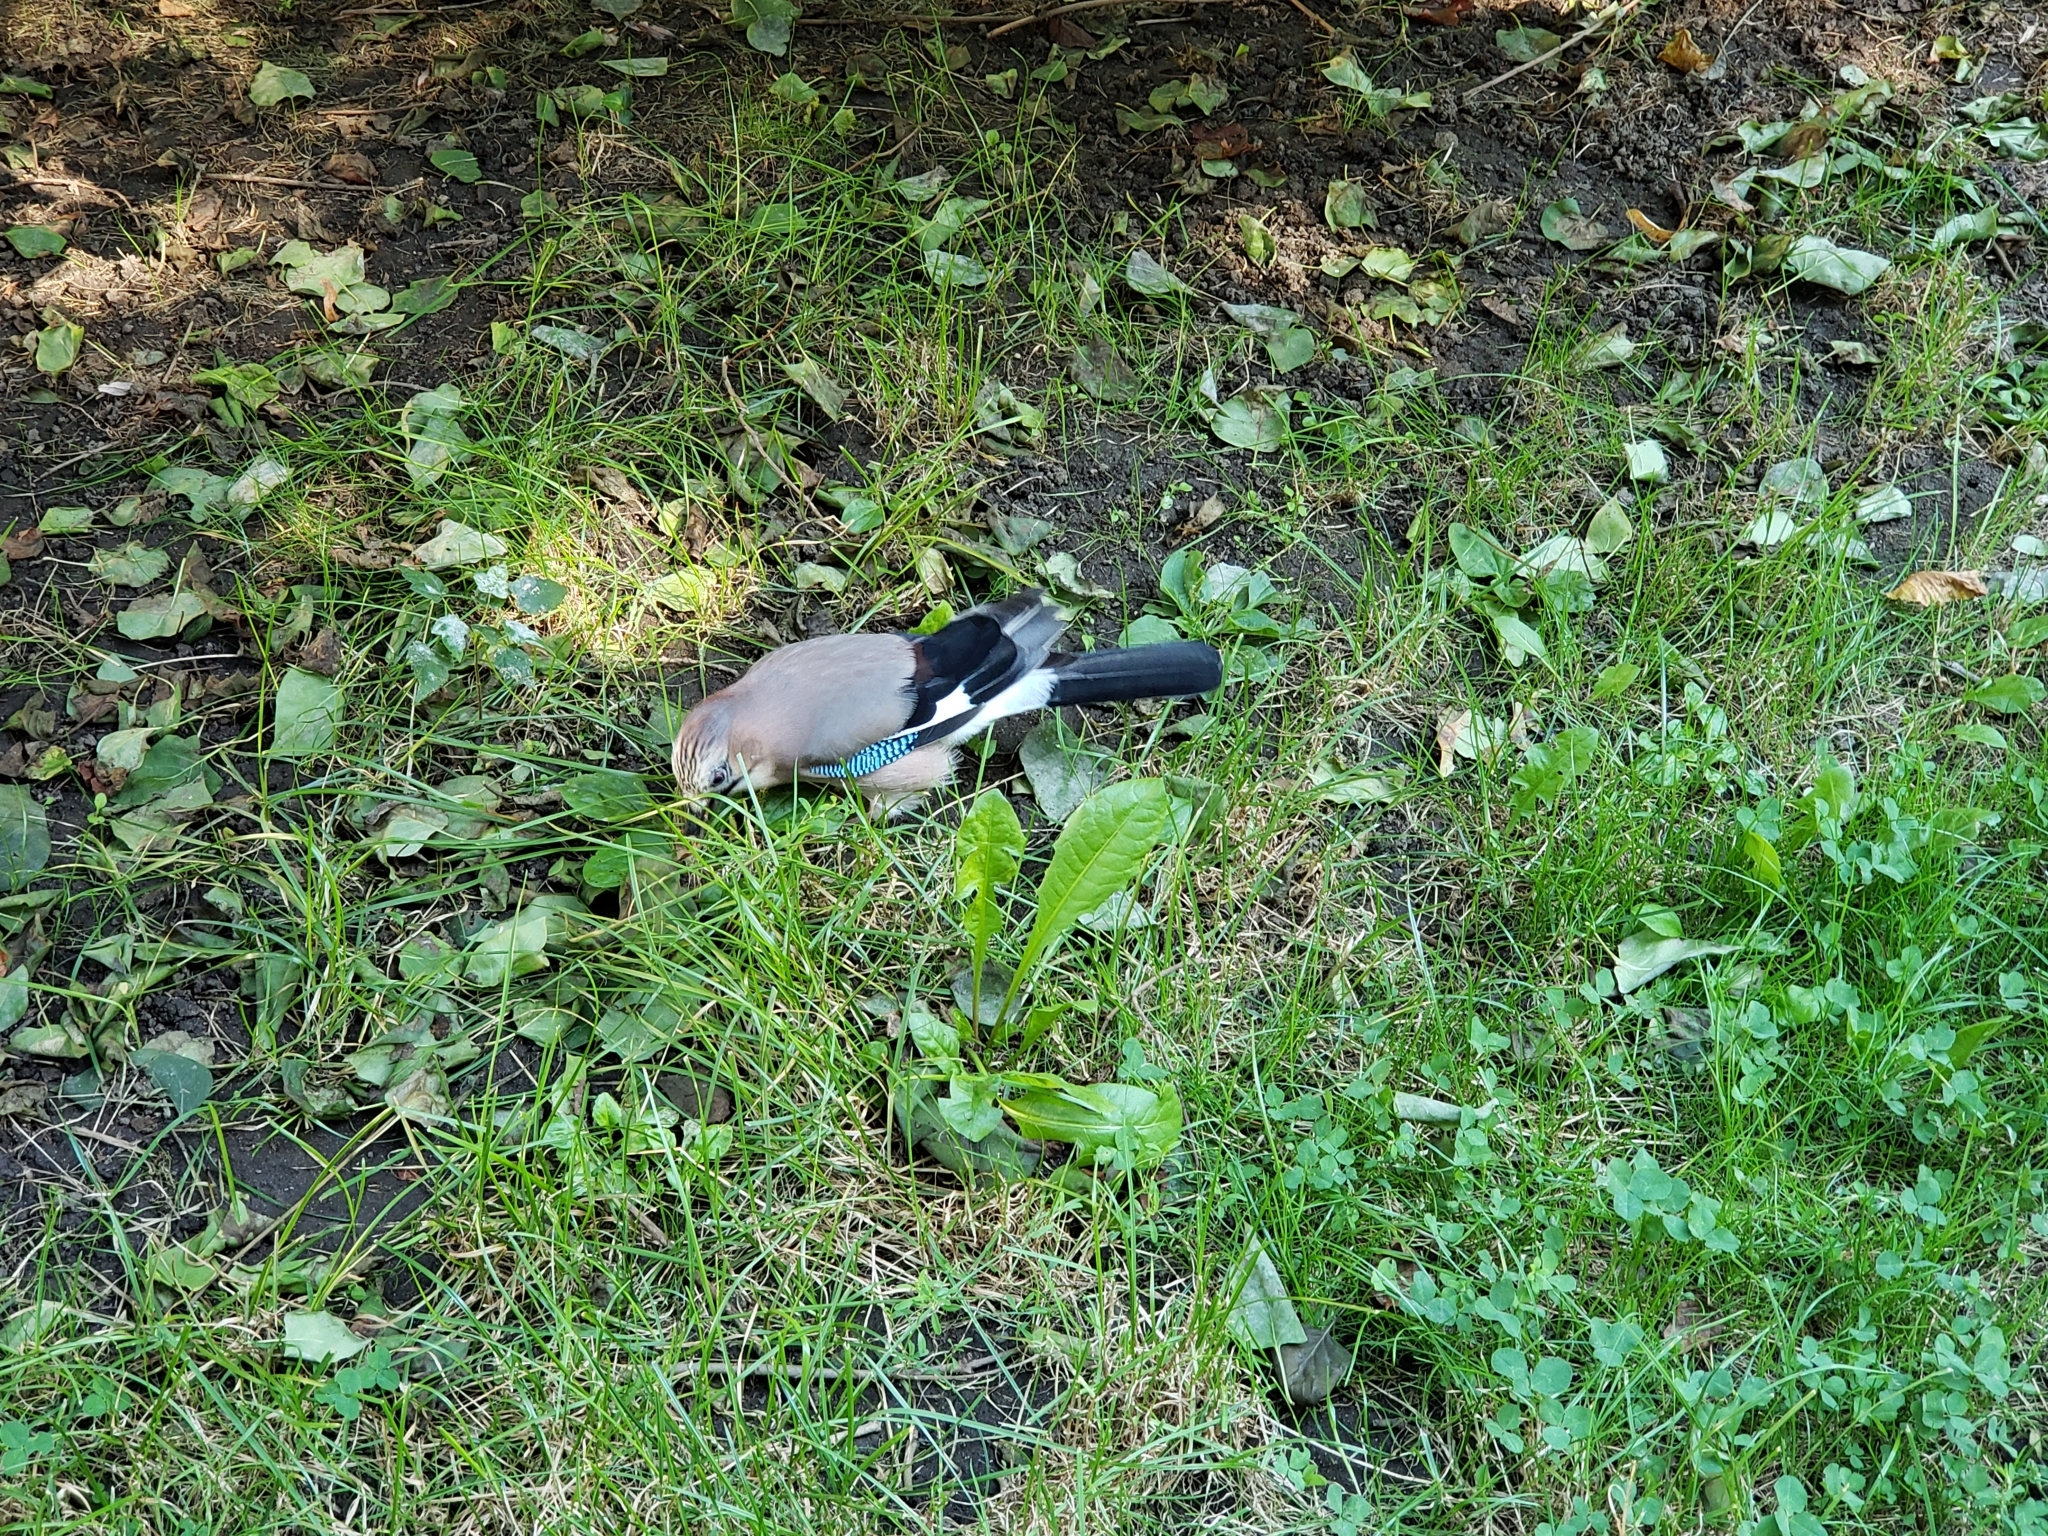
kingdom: Animalia
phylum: Chordata
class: Aves
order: Passeriformes
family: Corvidae
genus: Garrulus
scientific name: Garrulus glandarius
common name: Eurasian jay
